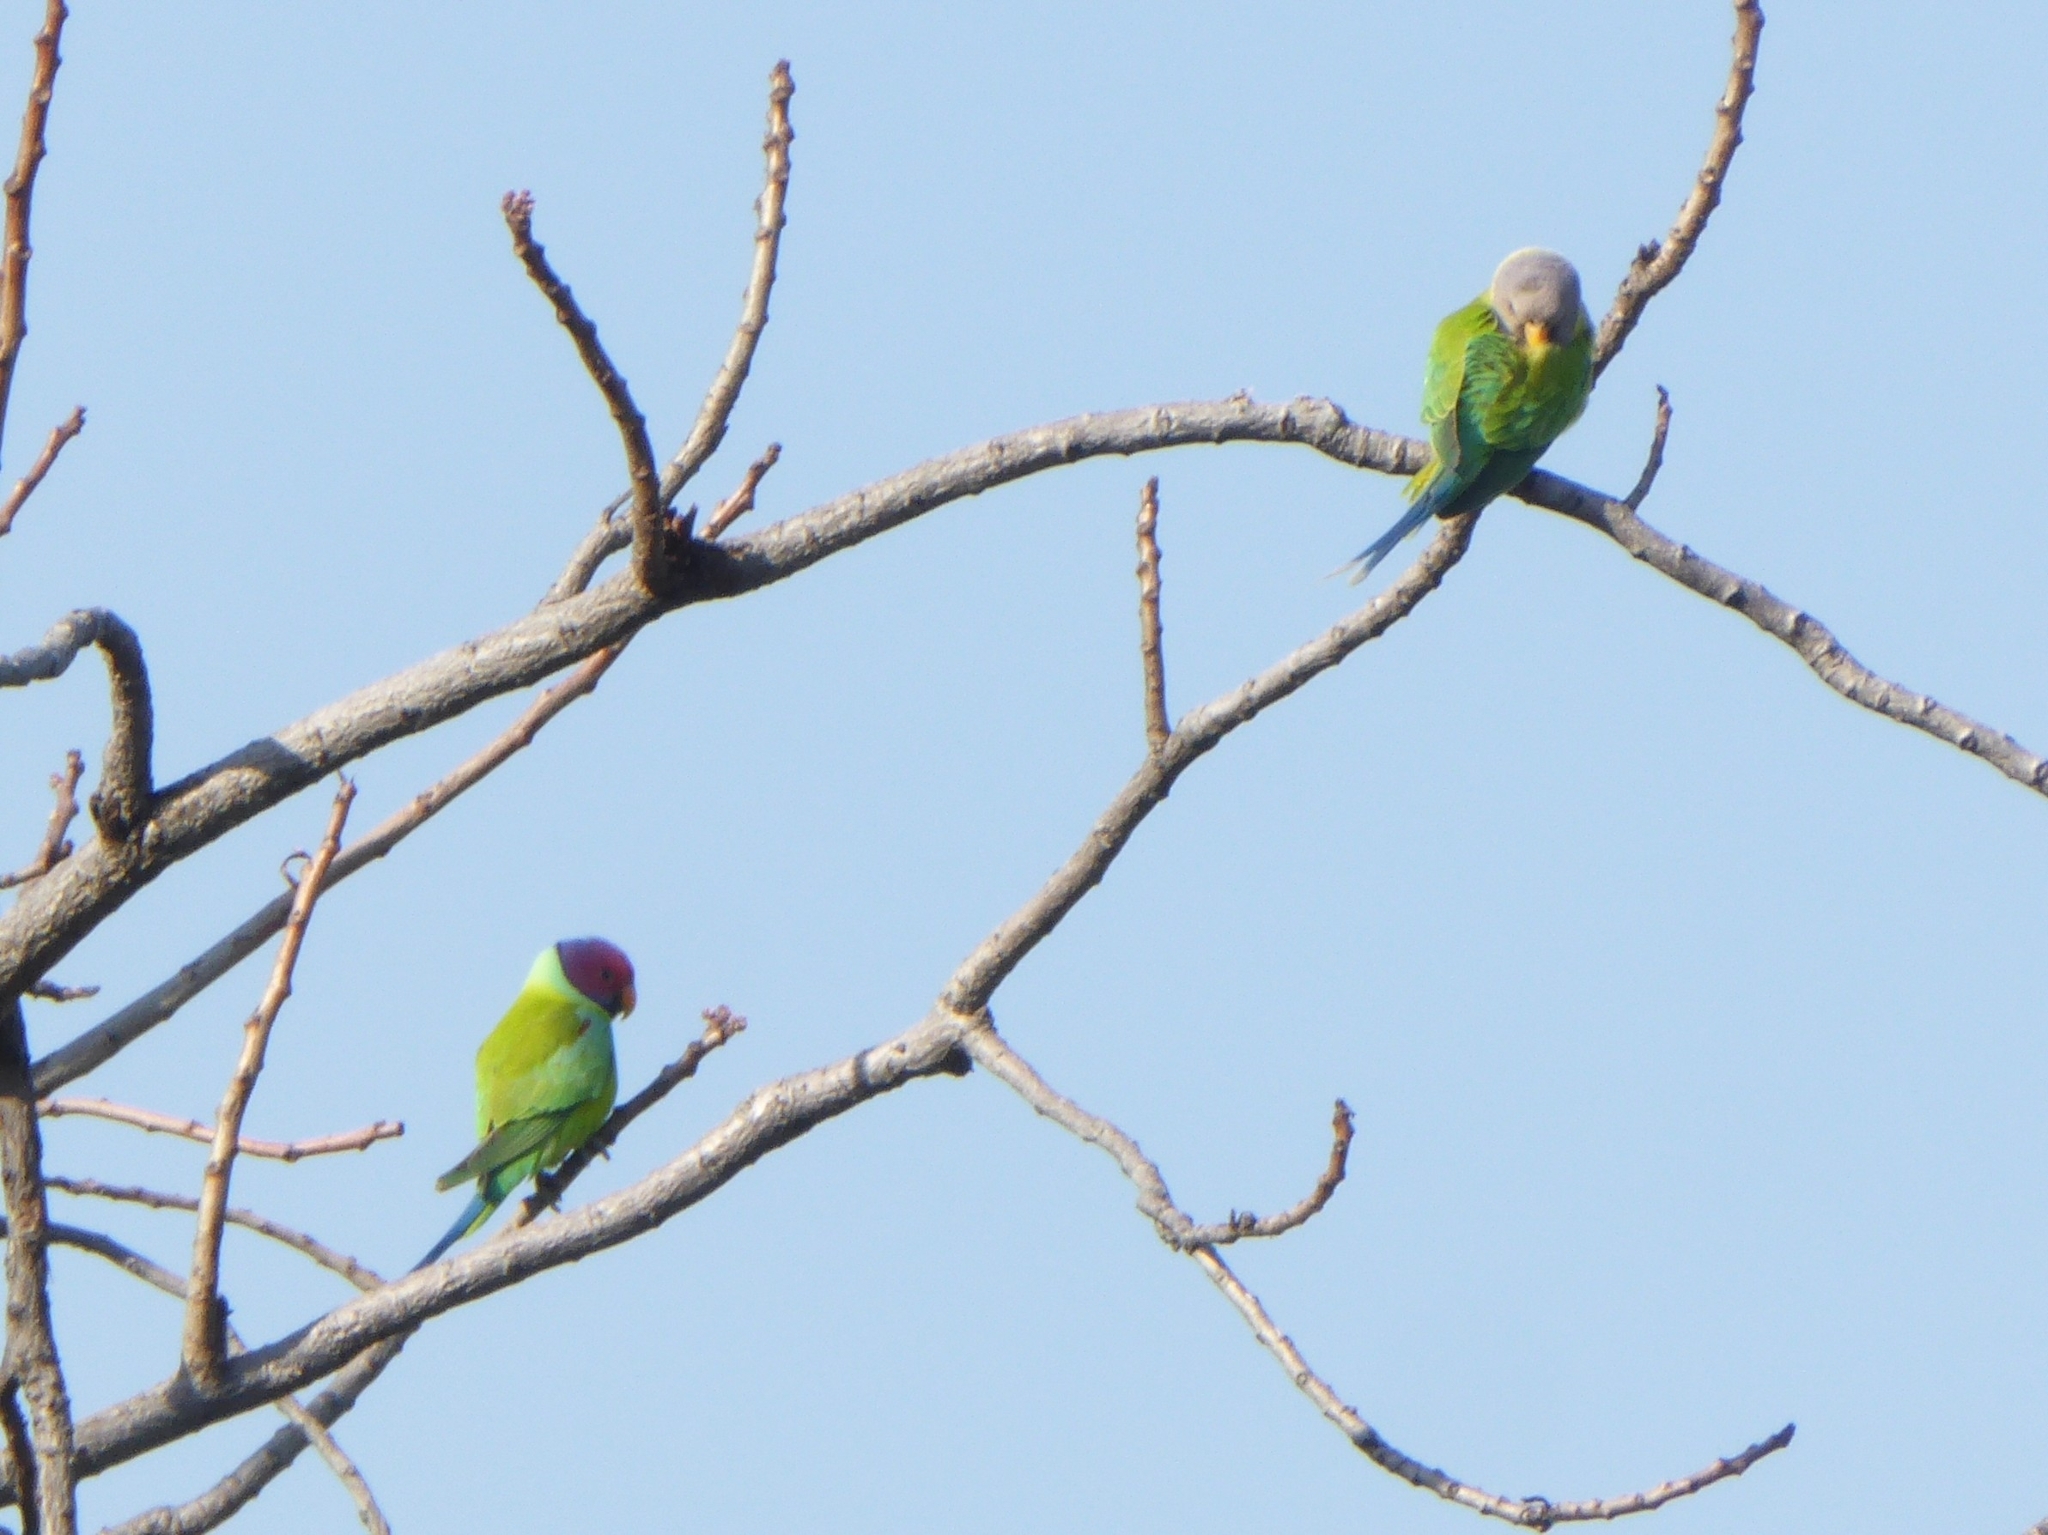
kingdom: Animalia
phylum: Chordata
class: Aves
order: Psittaciformes
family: Psittacidae
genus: Psittacula
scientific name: Psittacula cyanocephala
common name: Plum-headed parakeet
